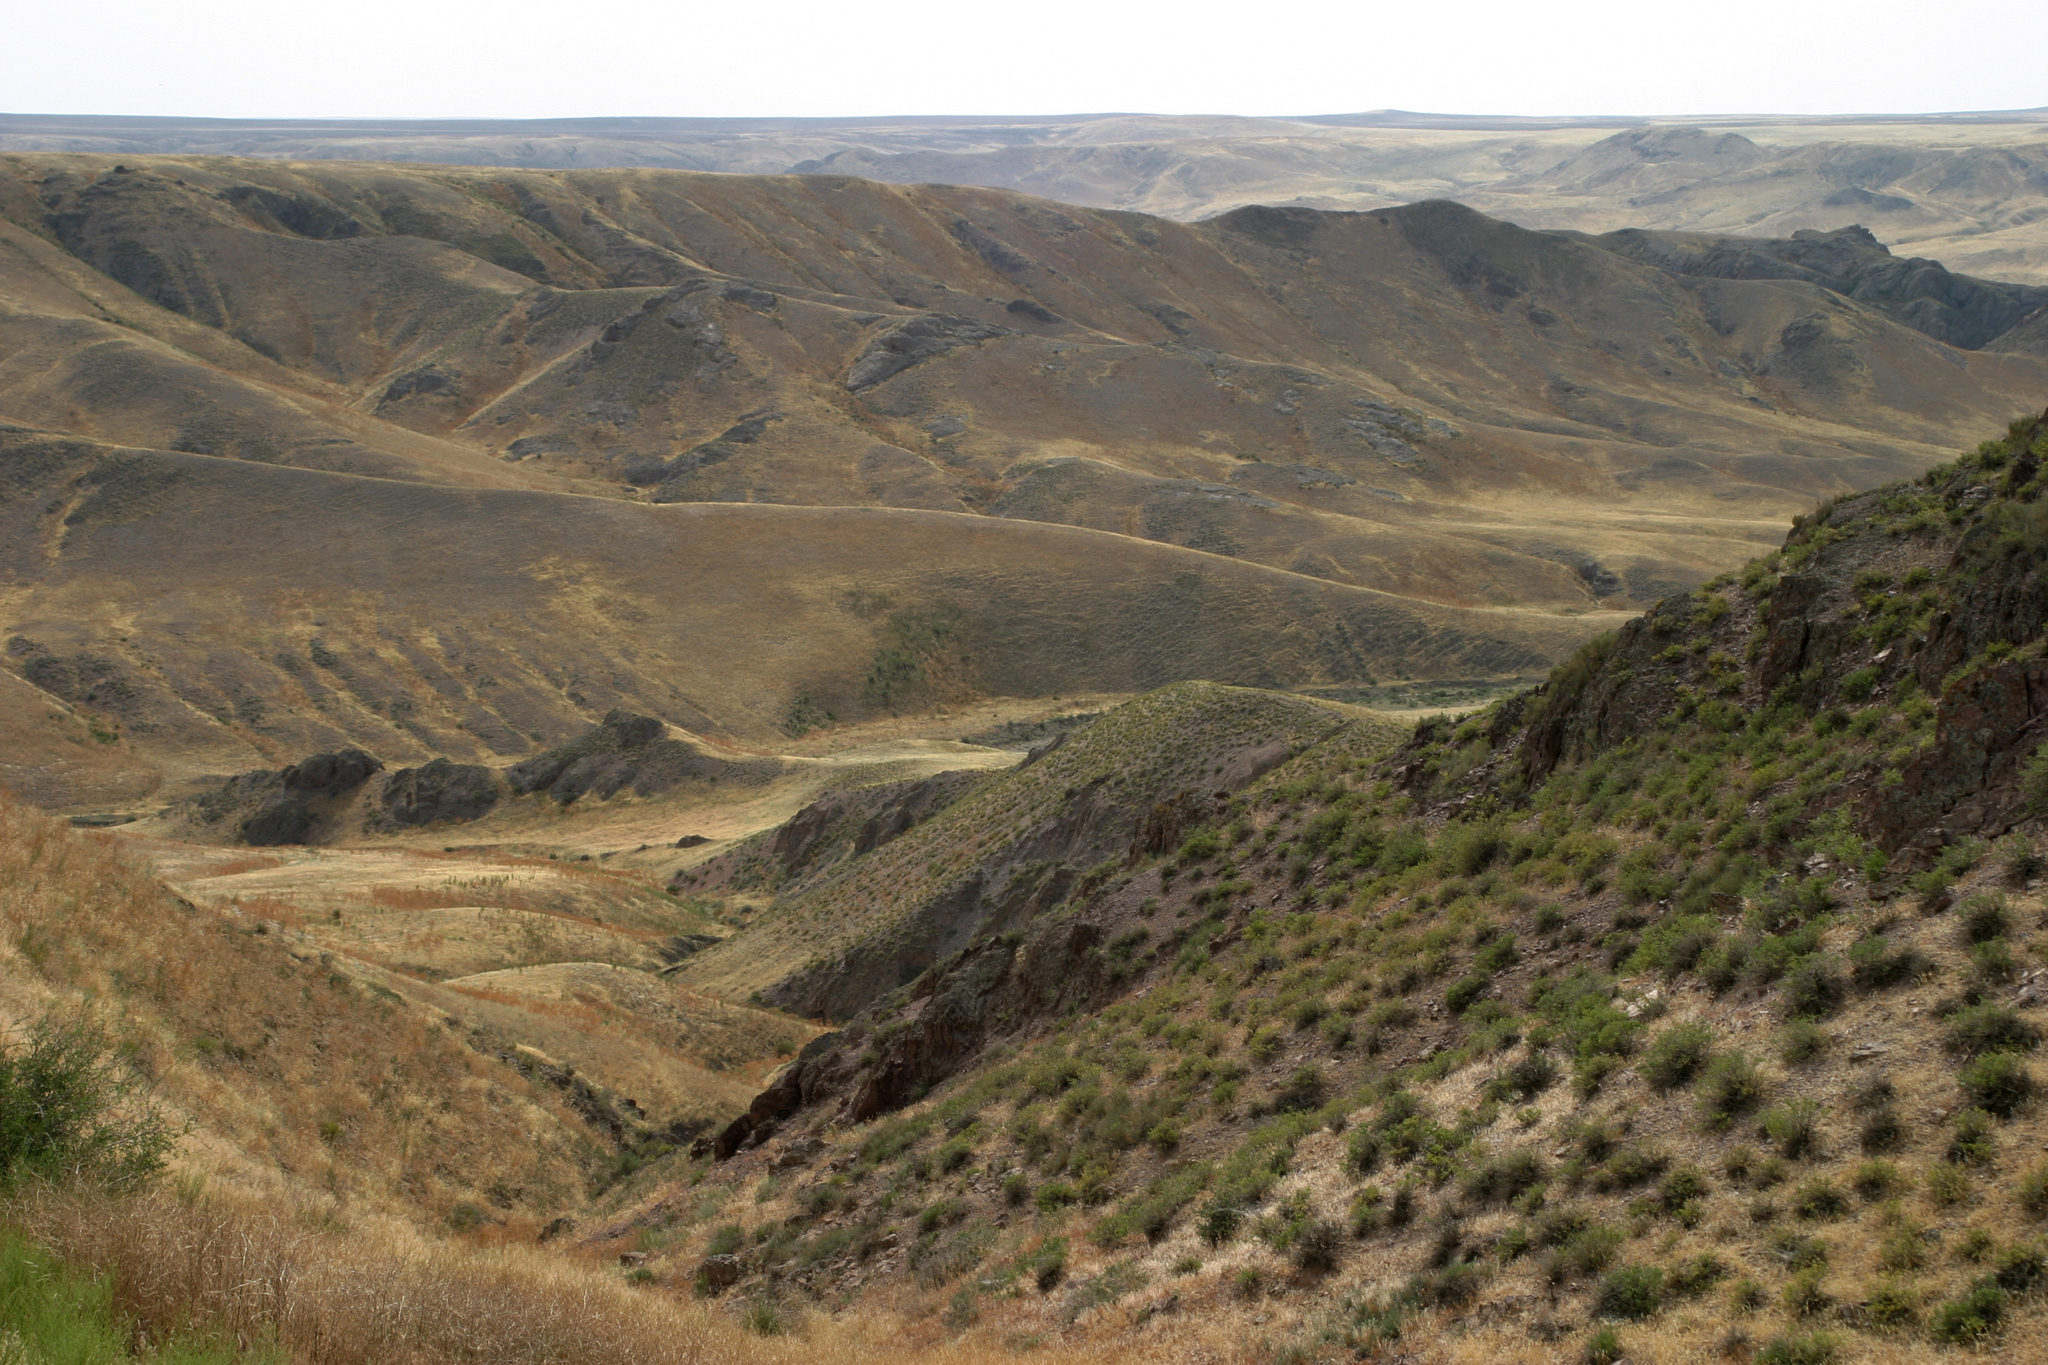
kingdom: Plantae
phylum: Tracheophyta
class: Magnoliopsida
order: Fabales
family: Fabaceae
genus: Caragana
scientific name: Caragana balchaschensis
